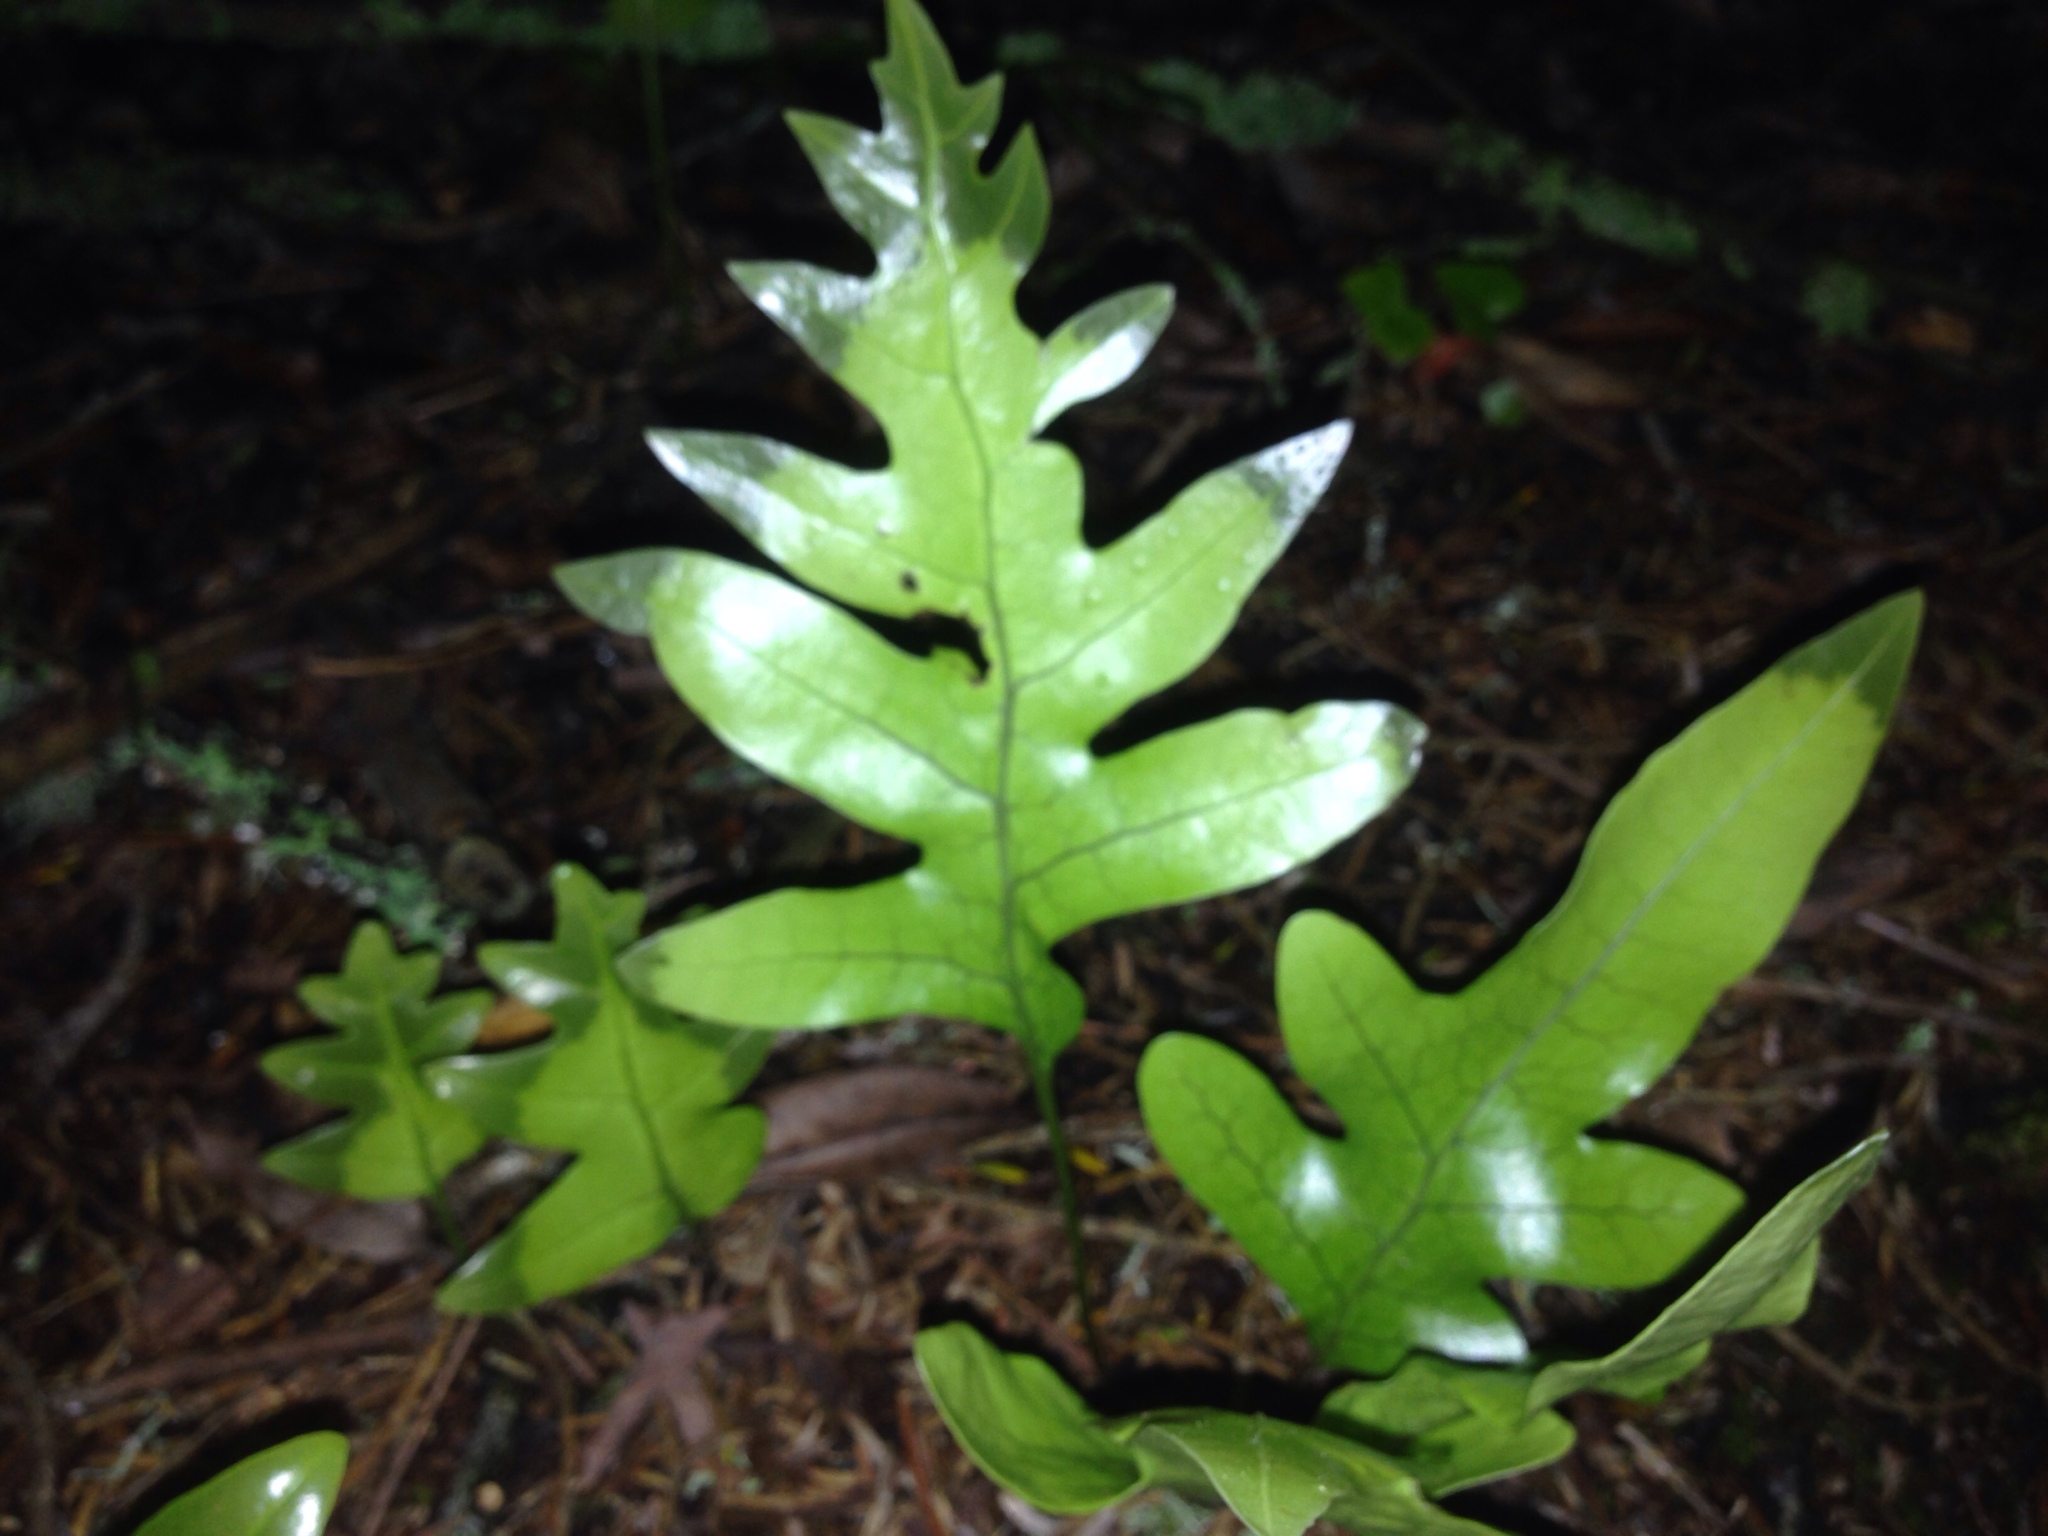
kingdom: Plantae
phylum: Tracheophyta
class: Polypodiopsida
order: Polypodiales
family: Polypodiaceae
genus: Lecanopteris
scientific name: Lecanopteris pustulata
